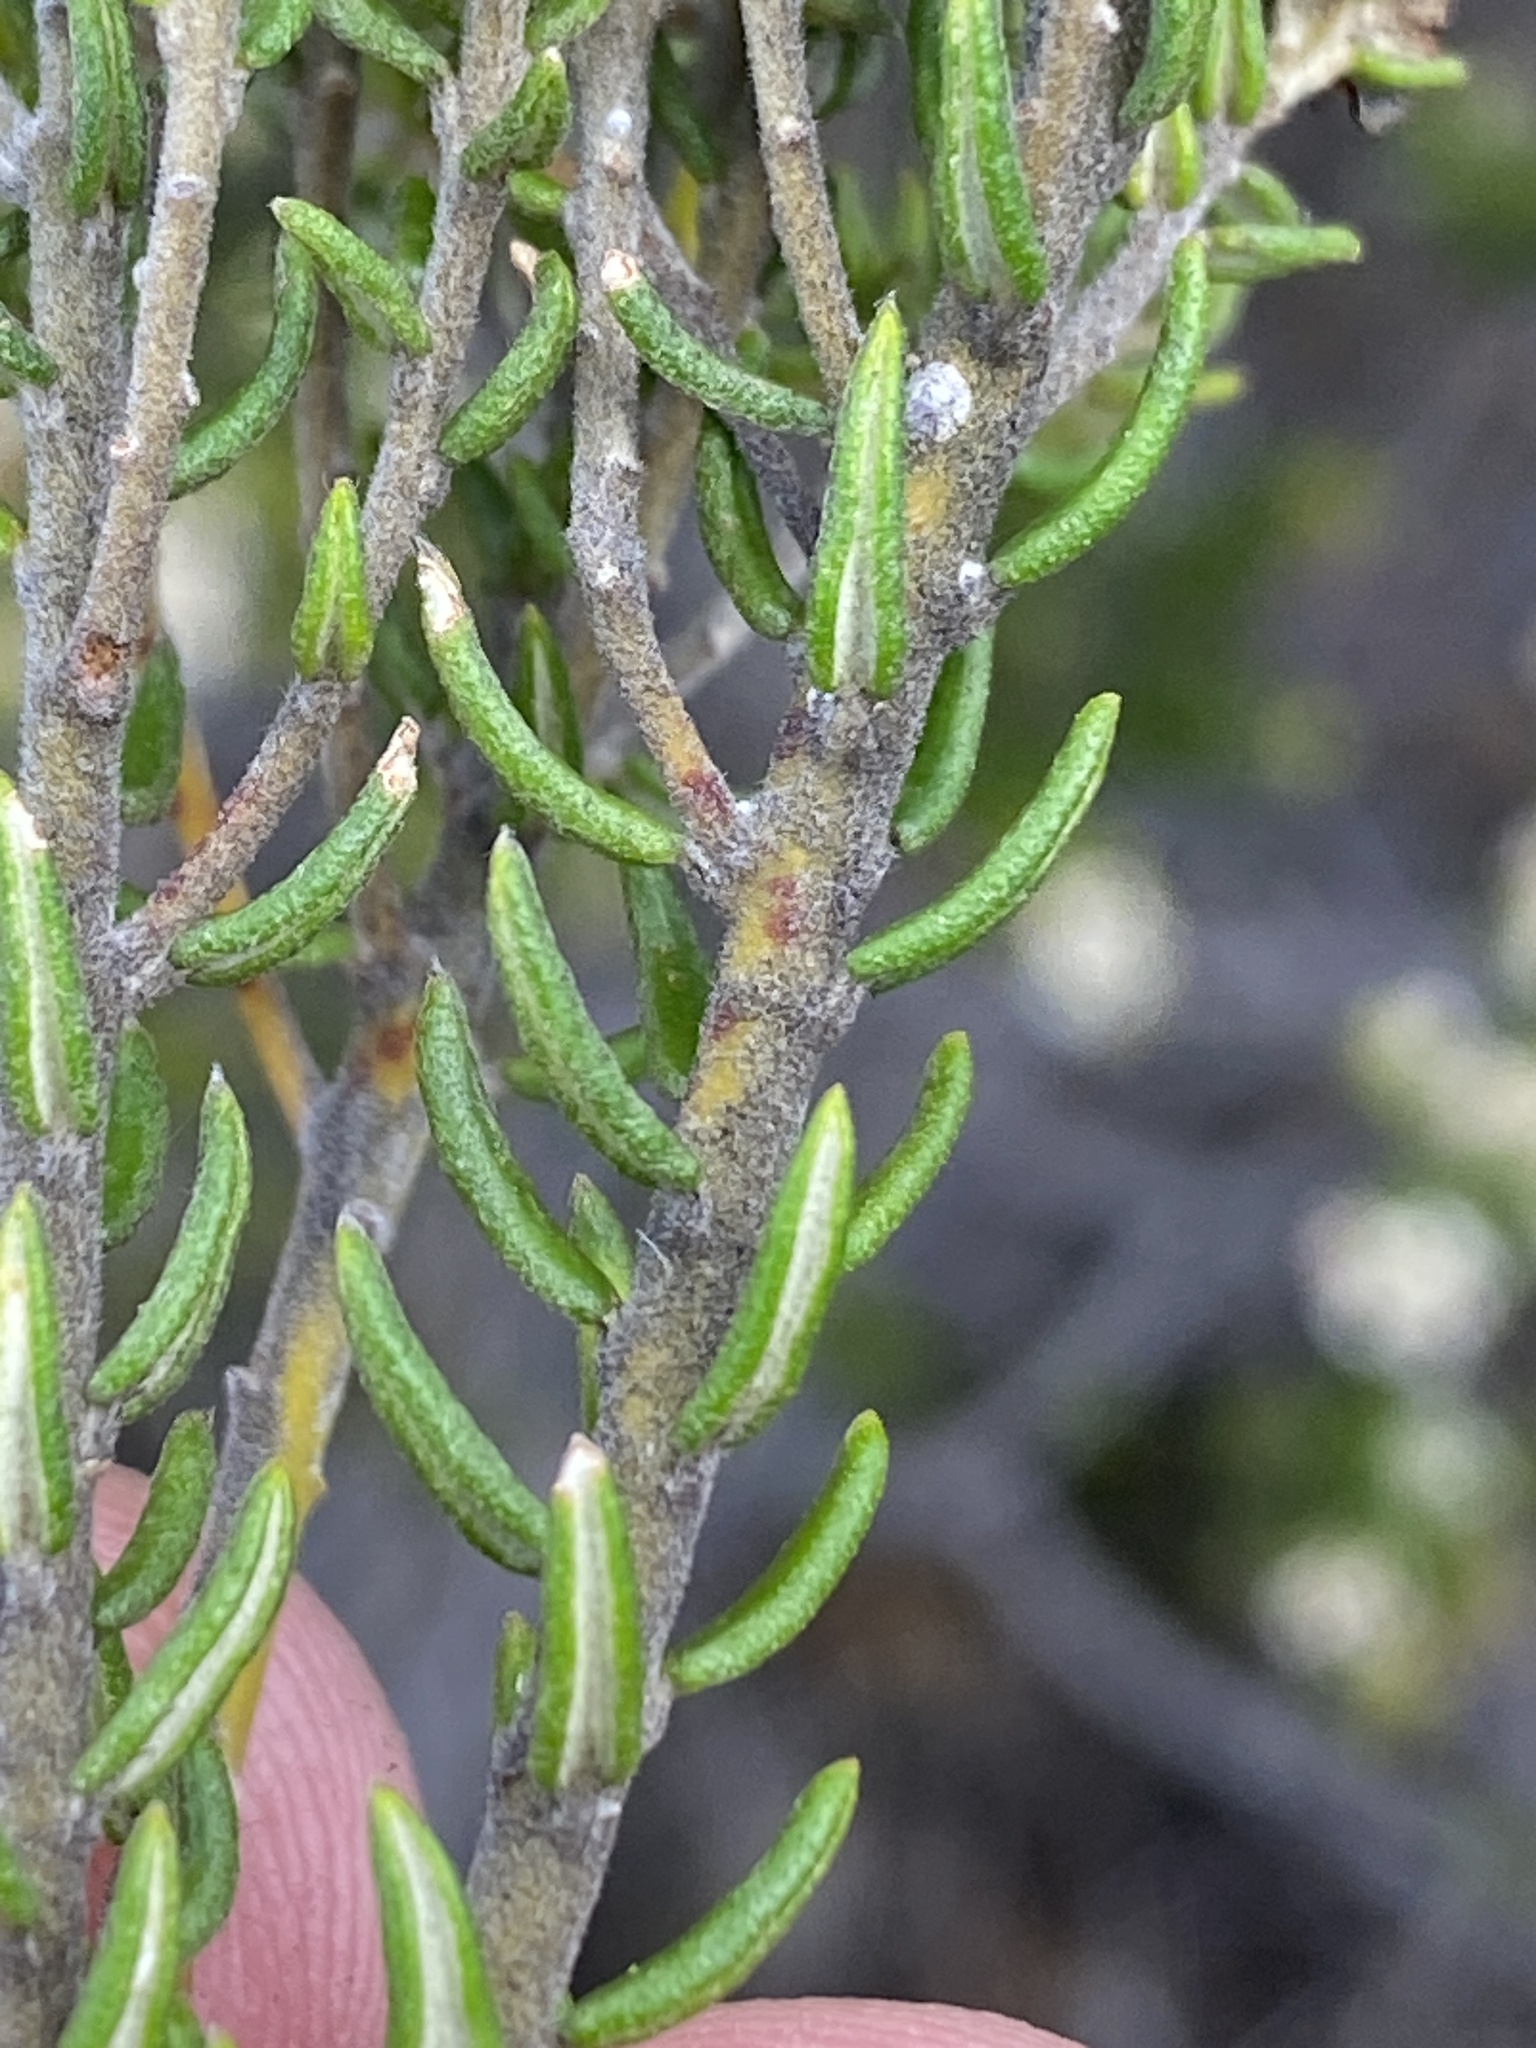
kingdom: Plantae
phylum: Tracheophyta
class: Magnoliopsida
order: Rosales
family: Rhamnaceae
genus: Phylica
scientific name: Phylica purpurea
